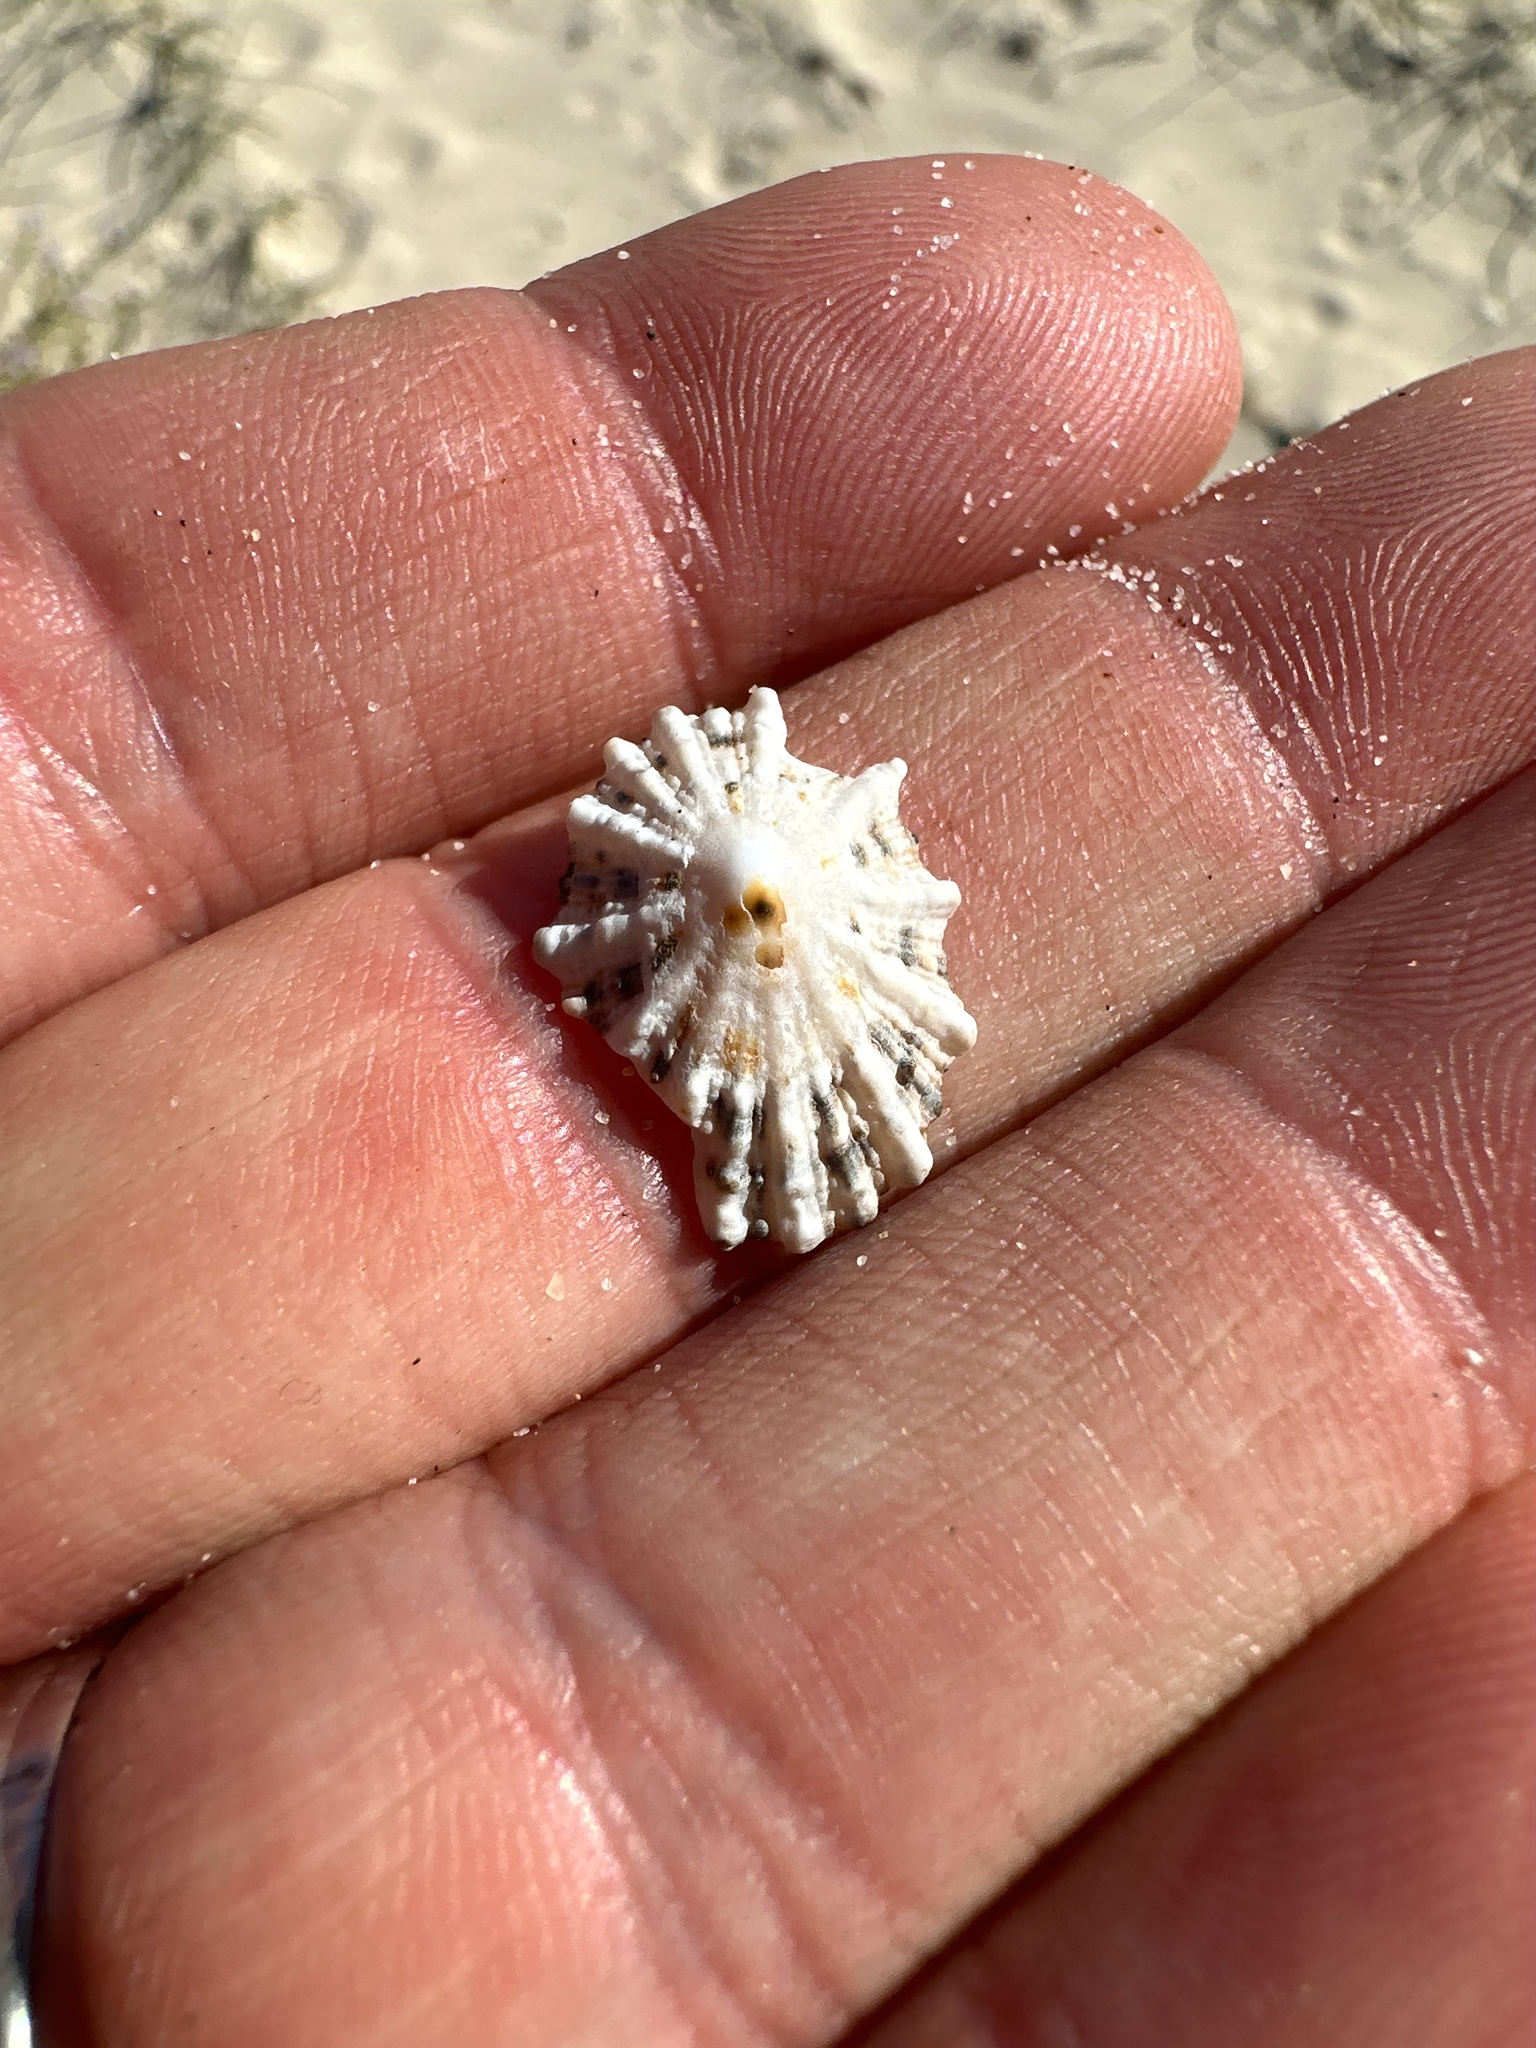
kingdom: Animalia
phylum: Mollusca
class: Gastropoda
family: Patellidae
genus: Scutellastra
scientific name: Scutellastra peronii
